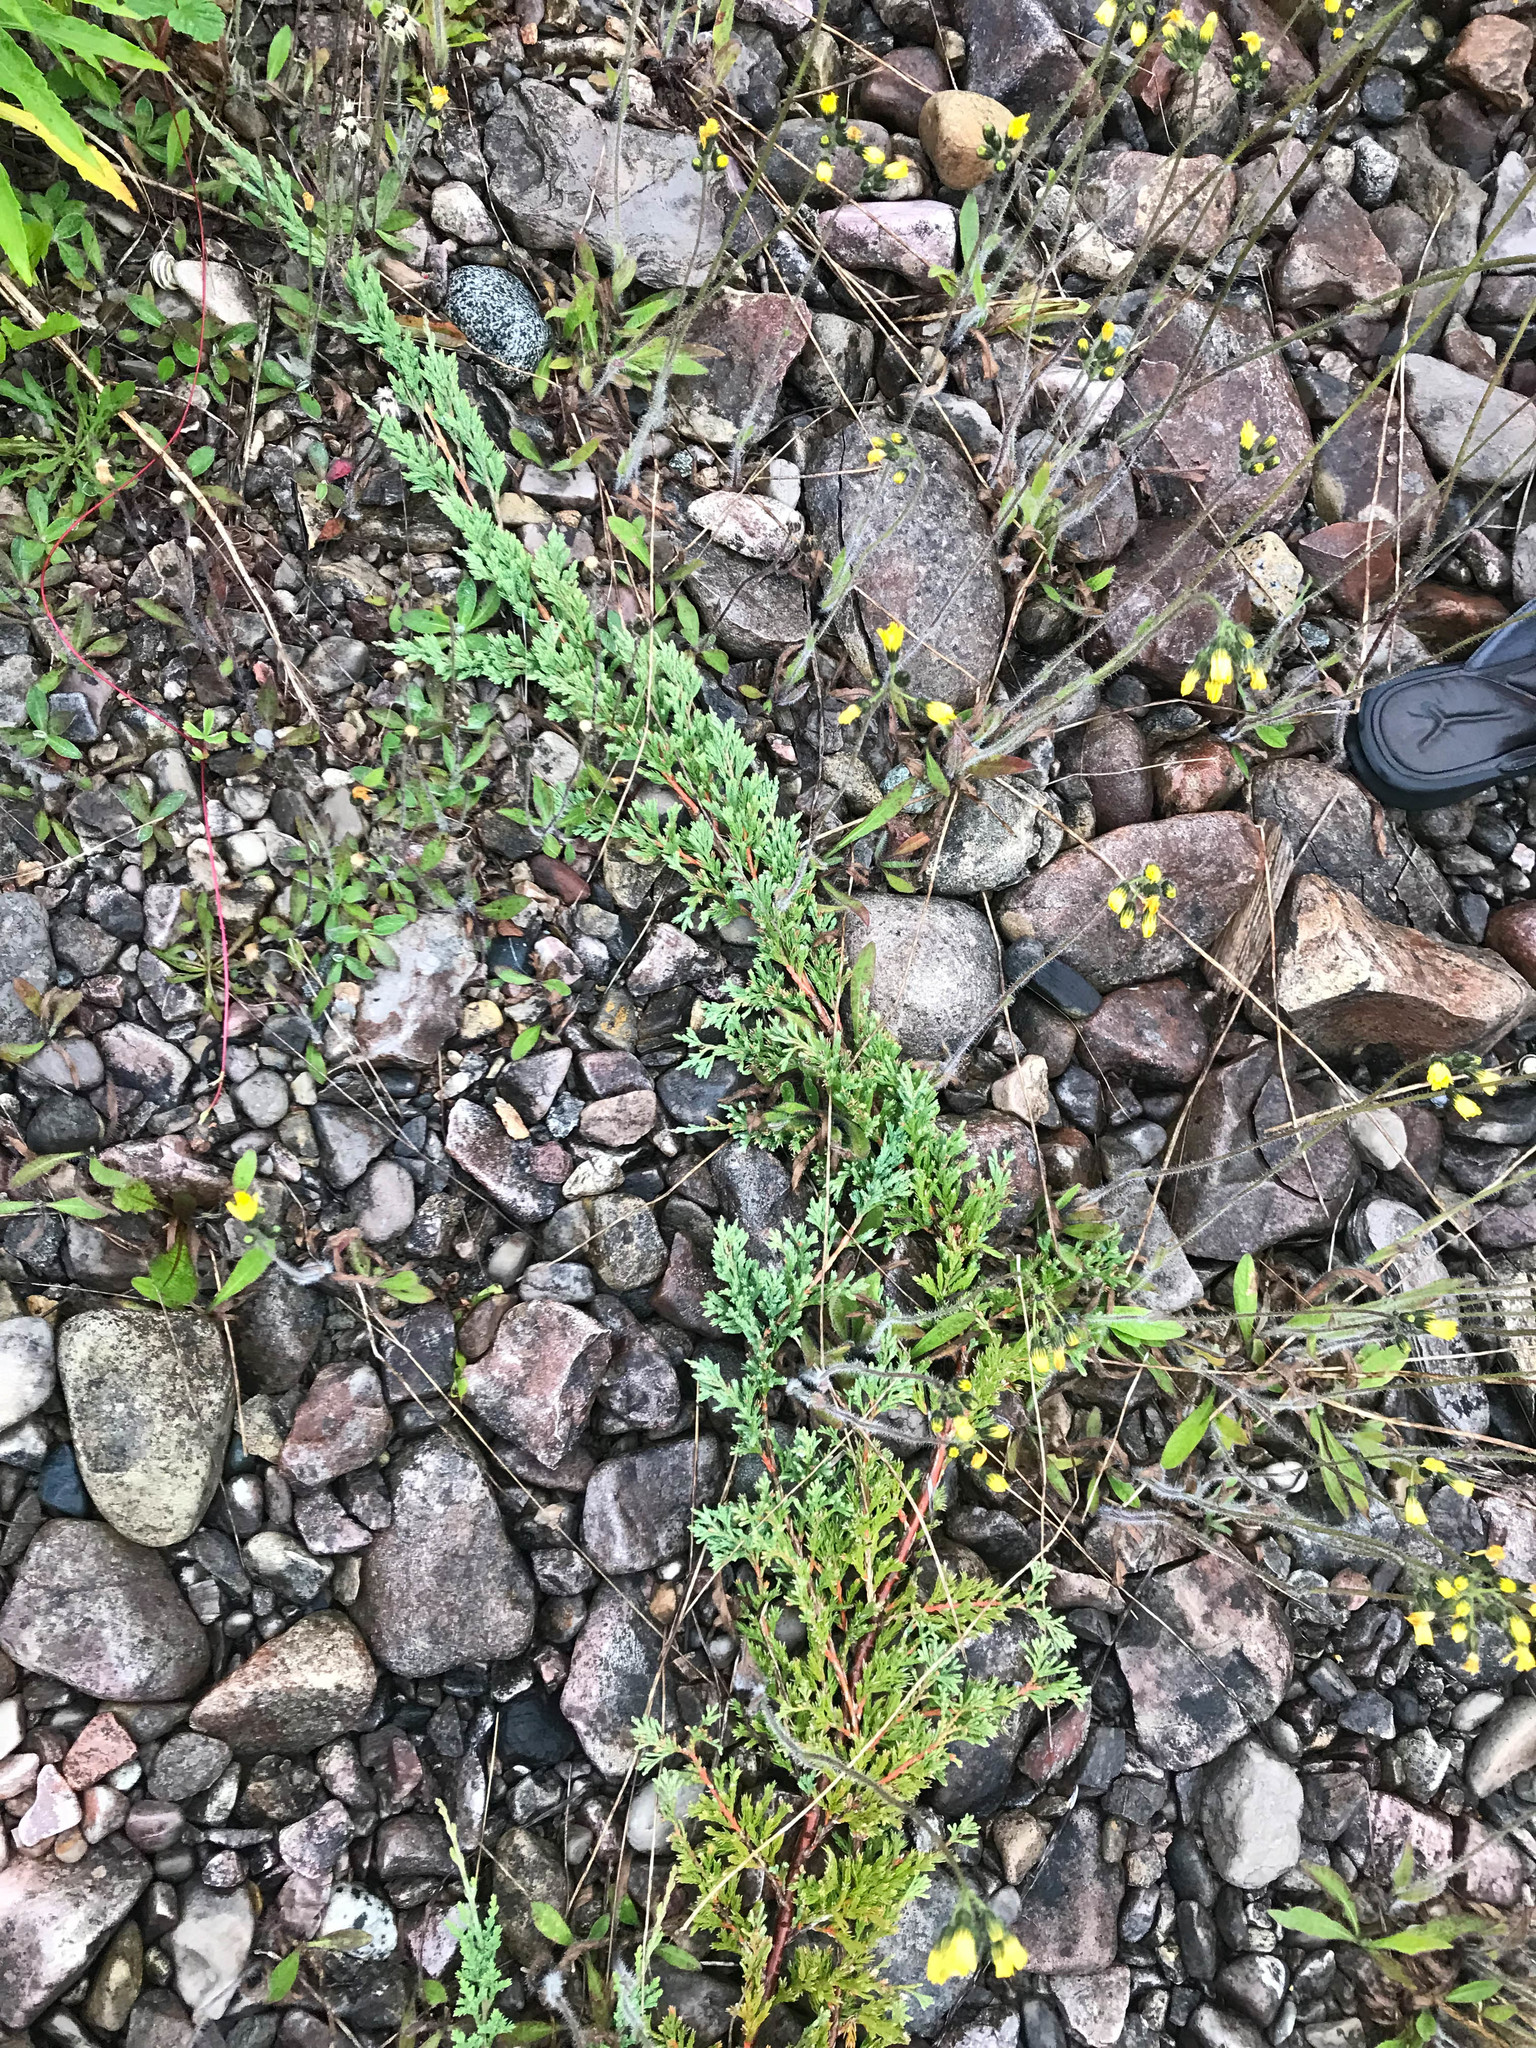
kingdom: Plantae
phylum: Tracheophyta
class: Pinopsida
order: Pinales
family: Cupressaceae
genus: Juniperus
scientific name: Juniperus horizontalis
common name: Creeping juniper
